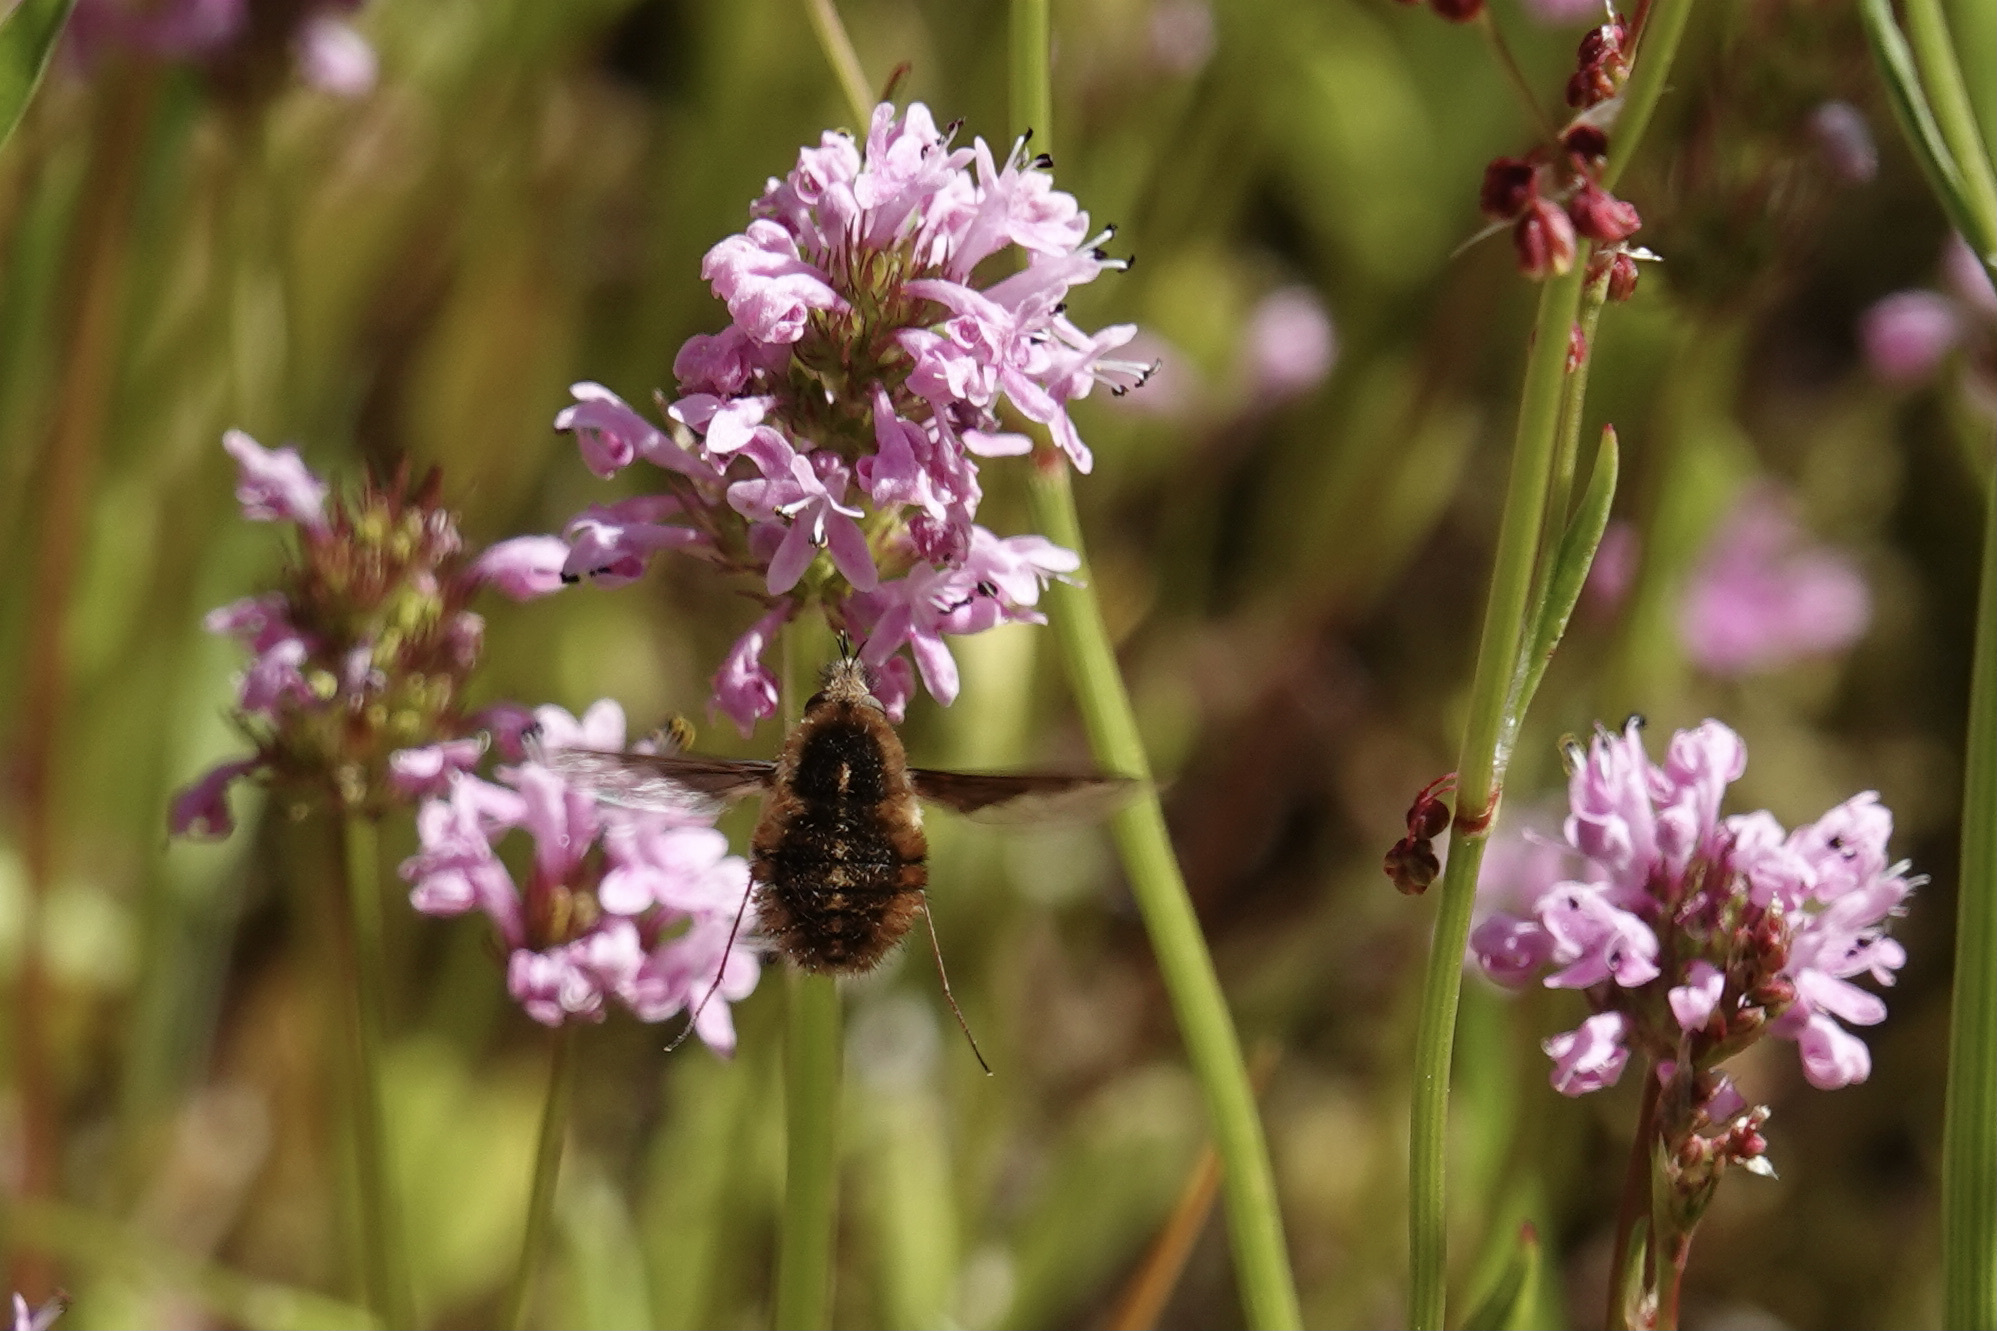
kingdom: Animalia
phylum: Arthropoda
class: Insecta
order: Diptera
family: Bombyliidae
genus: Bombylius
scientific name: Bombylius major
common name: Bee fly
